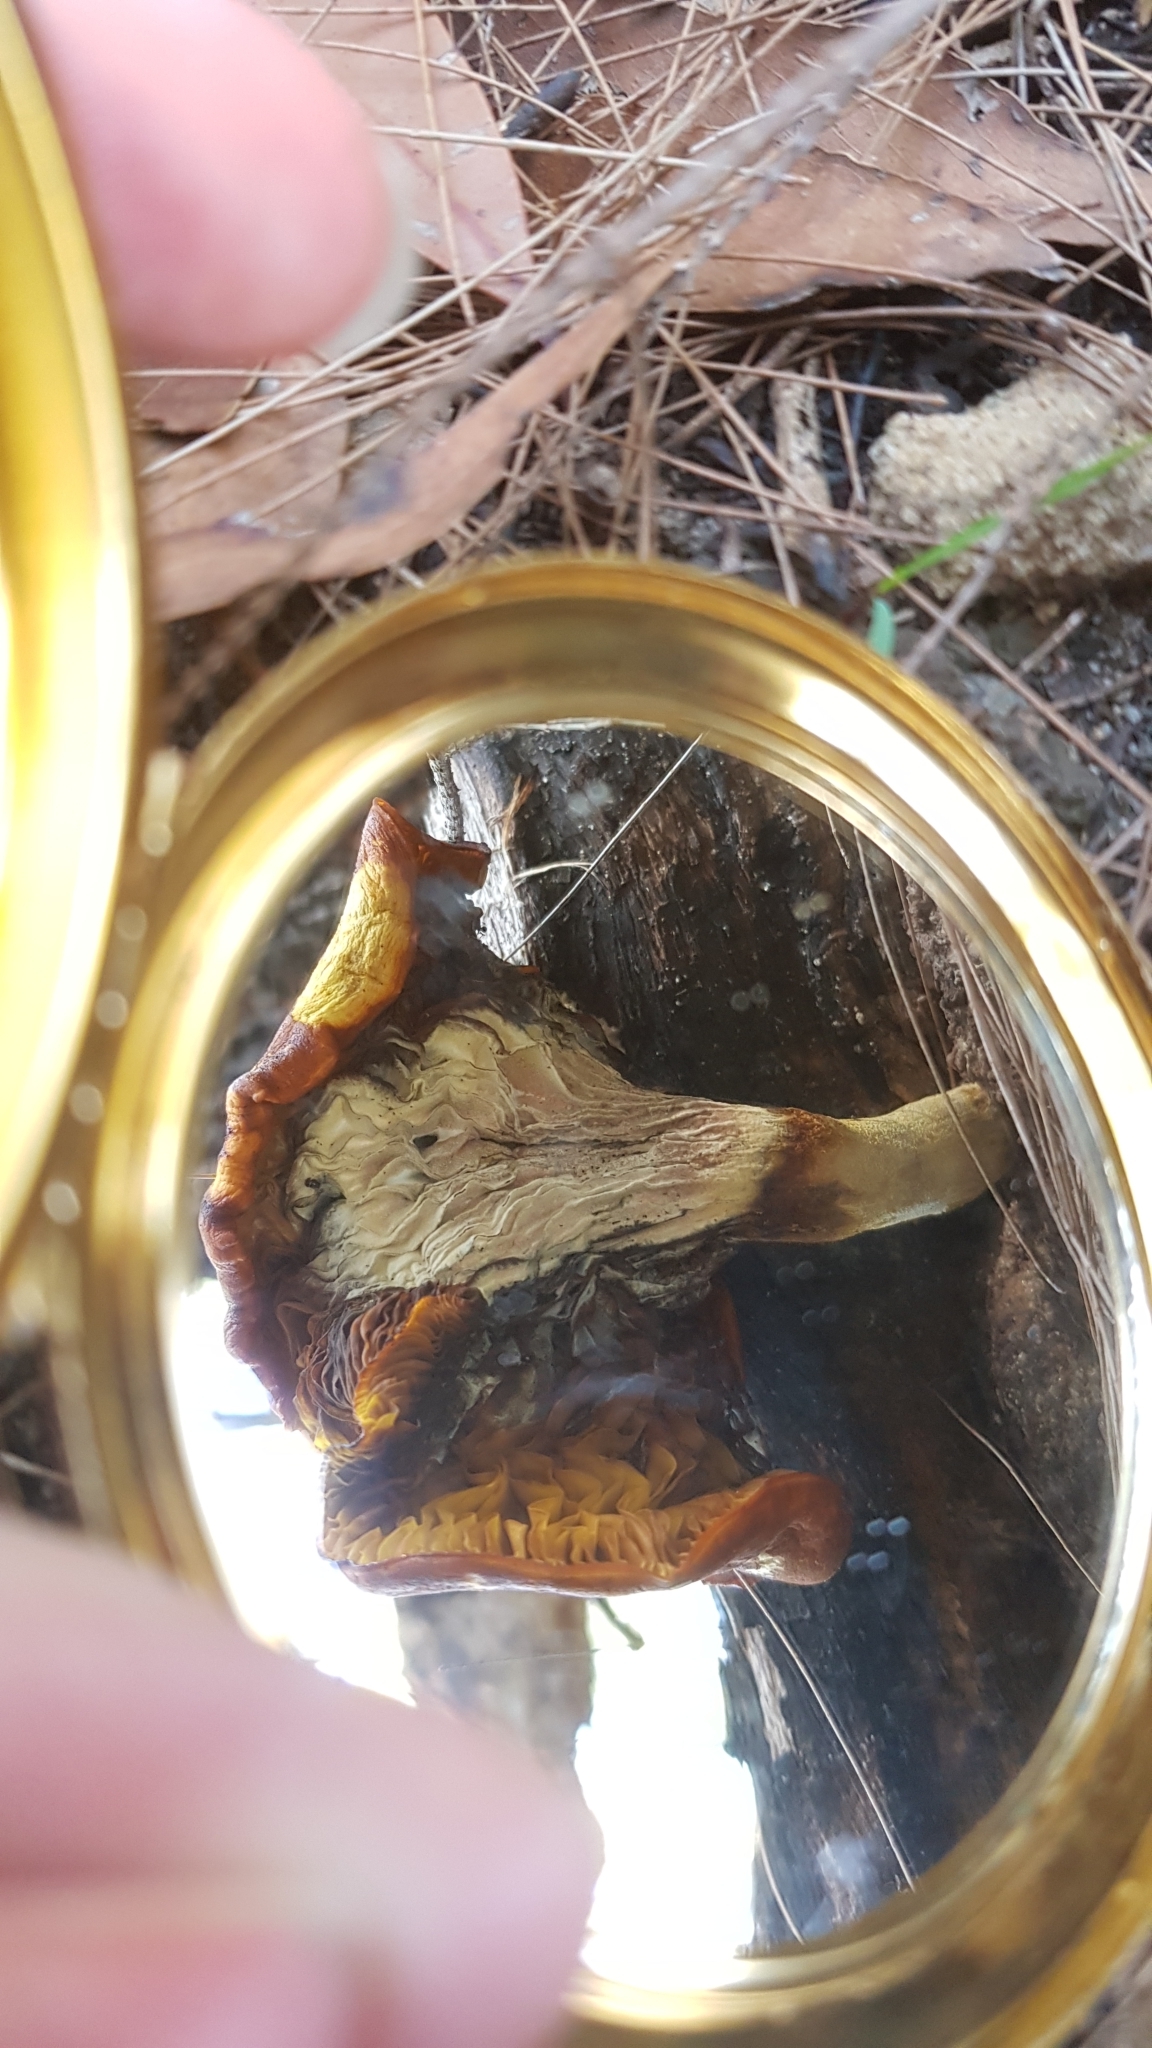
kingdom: Fungi
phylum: Basidiomycota
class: Agaricomycetes
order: Agaricales
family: Omphalotaceae
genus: Omphalotus
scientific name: Omphalotus nidiformis
